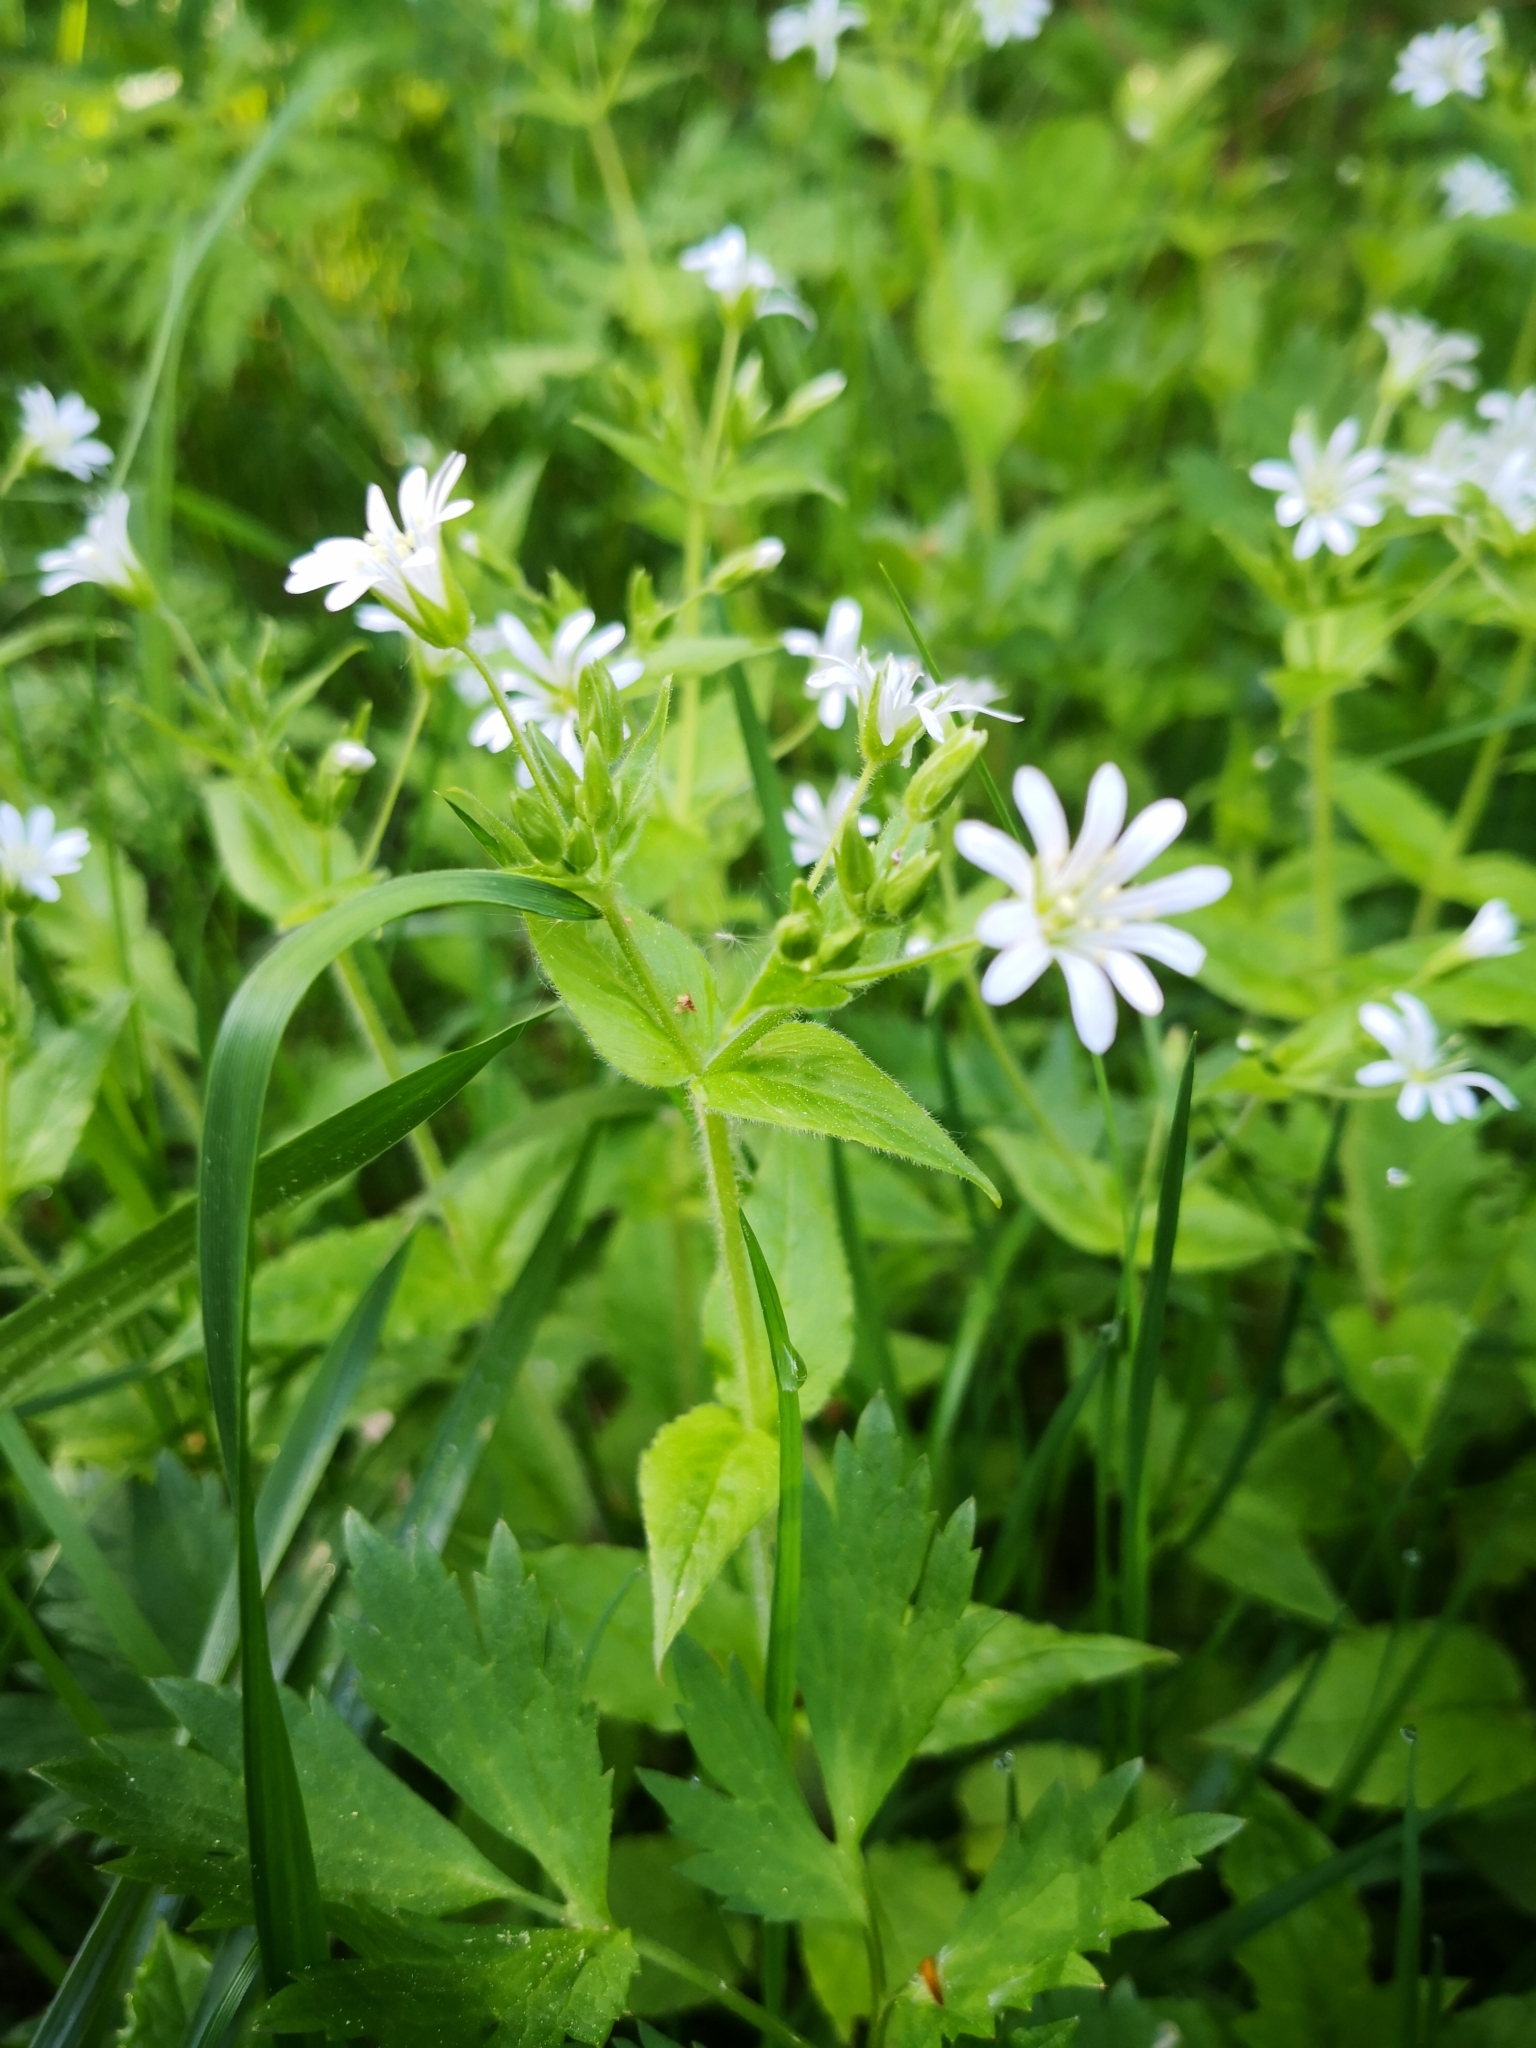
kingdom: Plantae
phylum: Tracheophyta
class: Magnoliopsida
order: Caryophyllales
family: Caryophyllaceae
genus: Stellaria
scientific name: Stellaria nemorum
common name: Wood stitchwort
